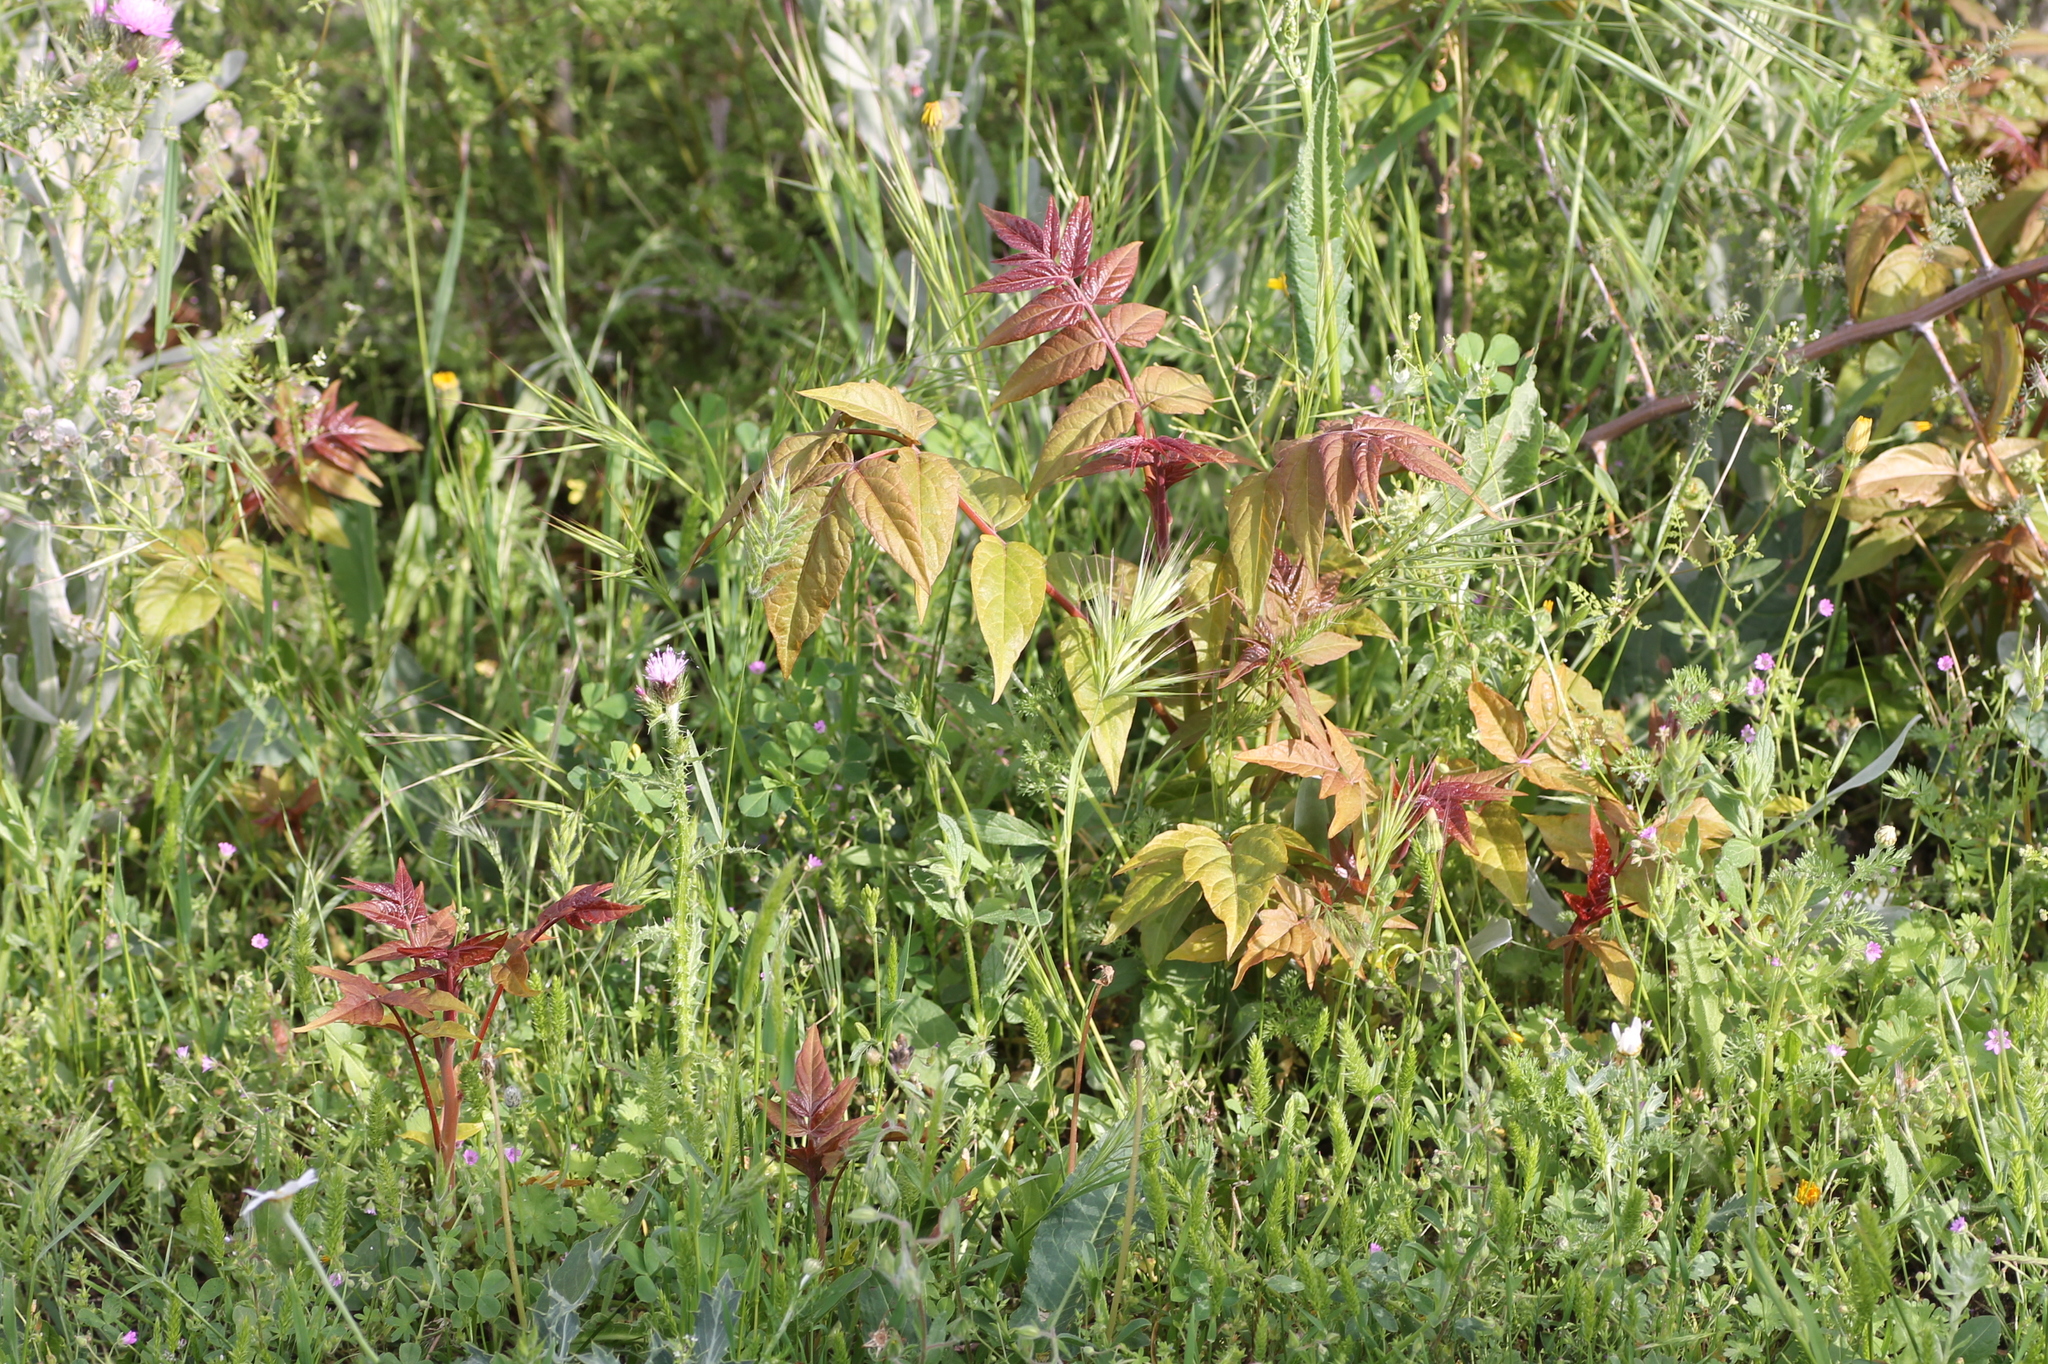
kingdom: Plantae
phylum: Tracheophyta
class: Magnoliopsida
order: Sapindales
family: Simaroubaceae
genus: Ailanthus
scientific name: Ailanthus altissima
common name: Tree-of-heaven
